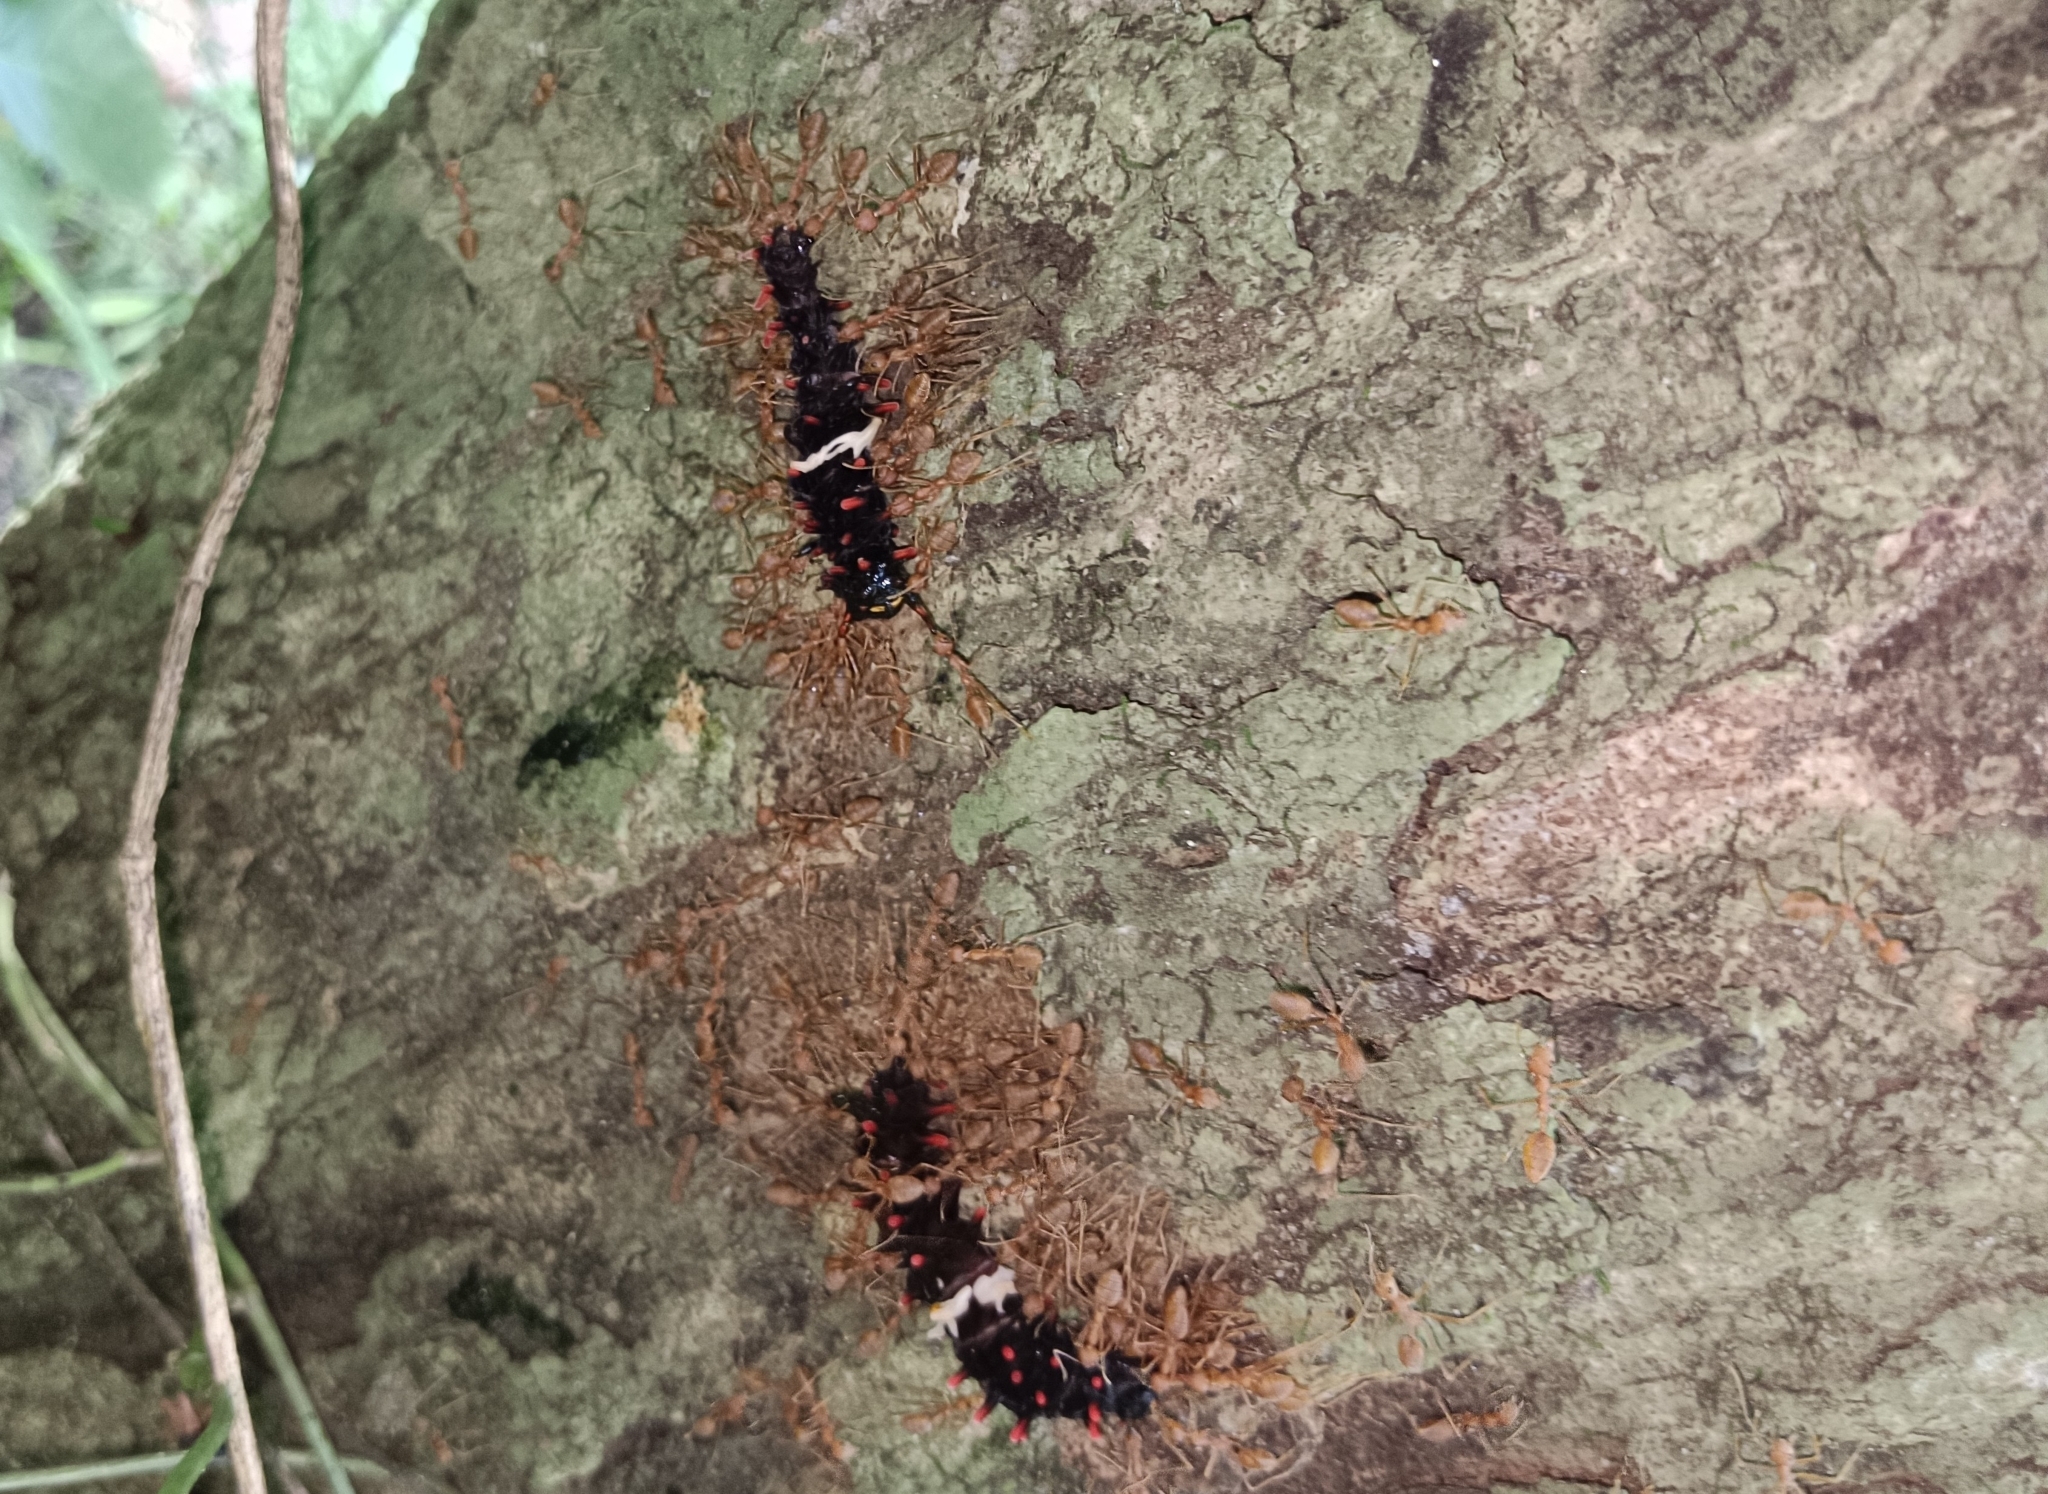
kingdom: Animalia
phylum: Arthropoda
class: Insecta
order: Lepidoptera
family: Papilionidae
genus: Pachliopta
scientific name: Pachliopta aristolochiae
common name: Common rose
